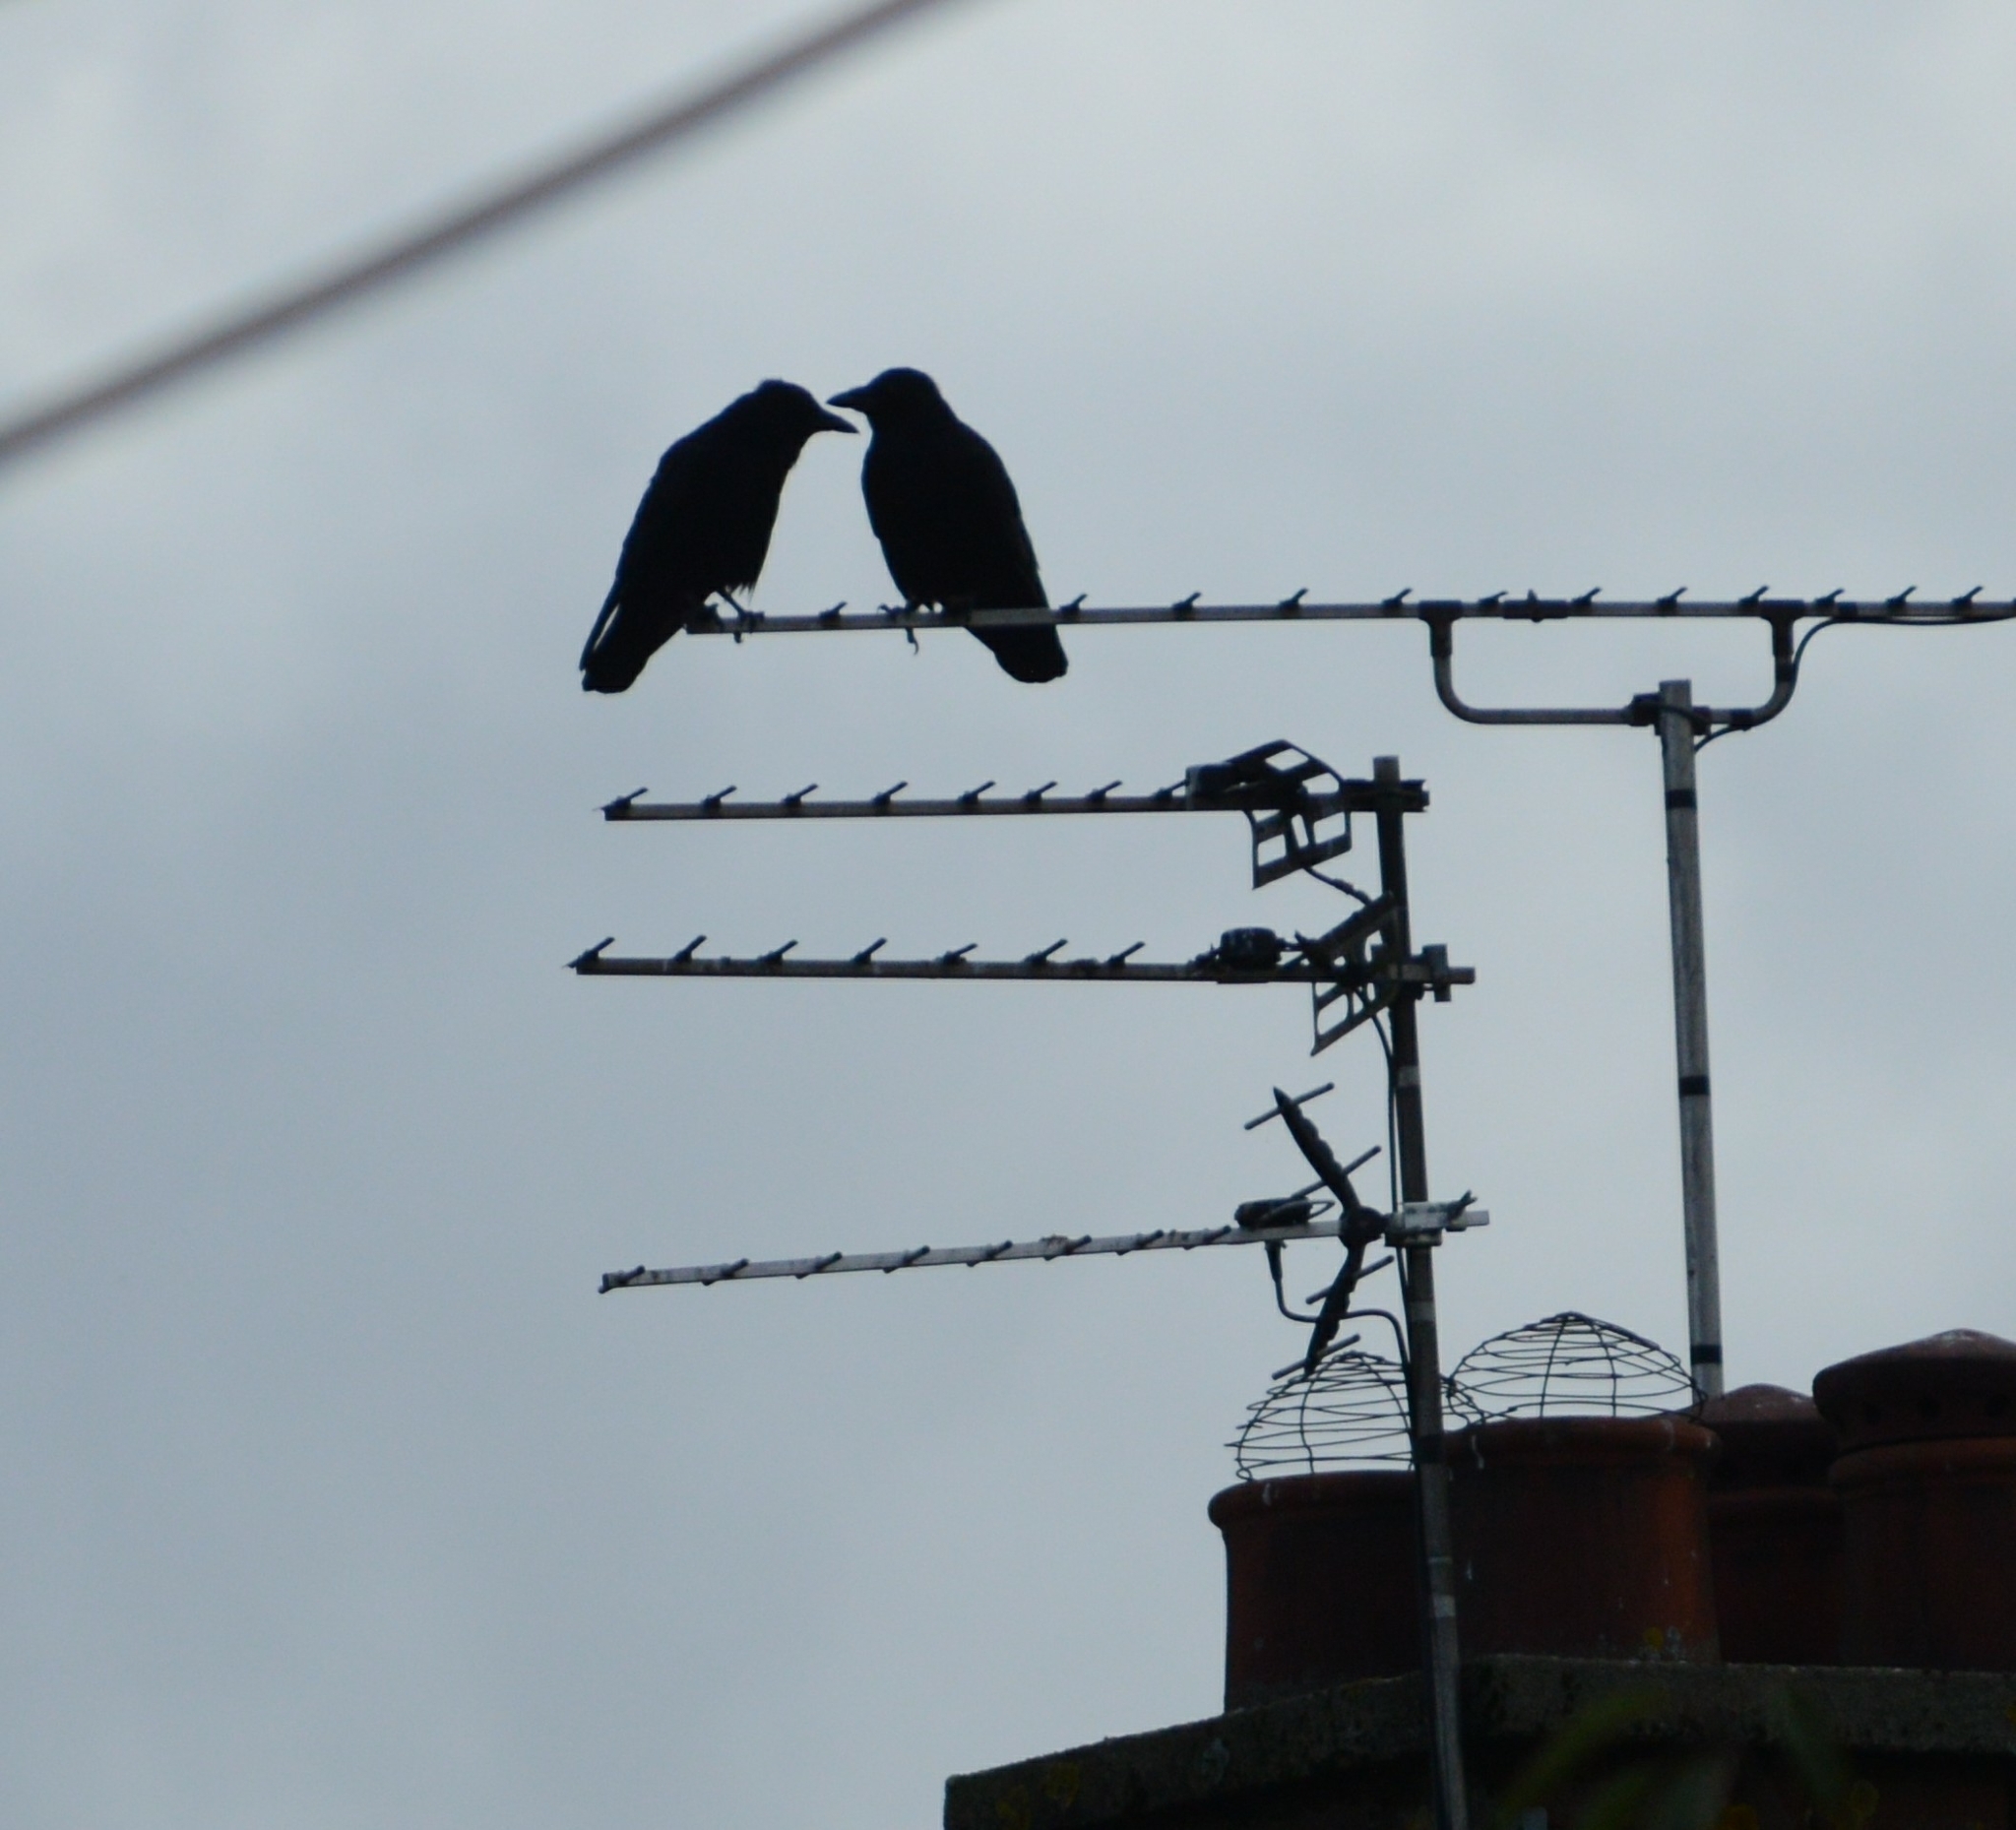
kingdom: Animalia
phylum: Chordata
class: Aves
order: Passeriformes
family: Corvidae
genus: Corvus
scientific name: Corvus corone
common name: Carrion crow
